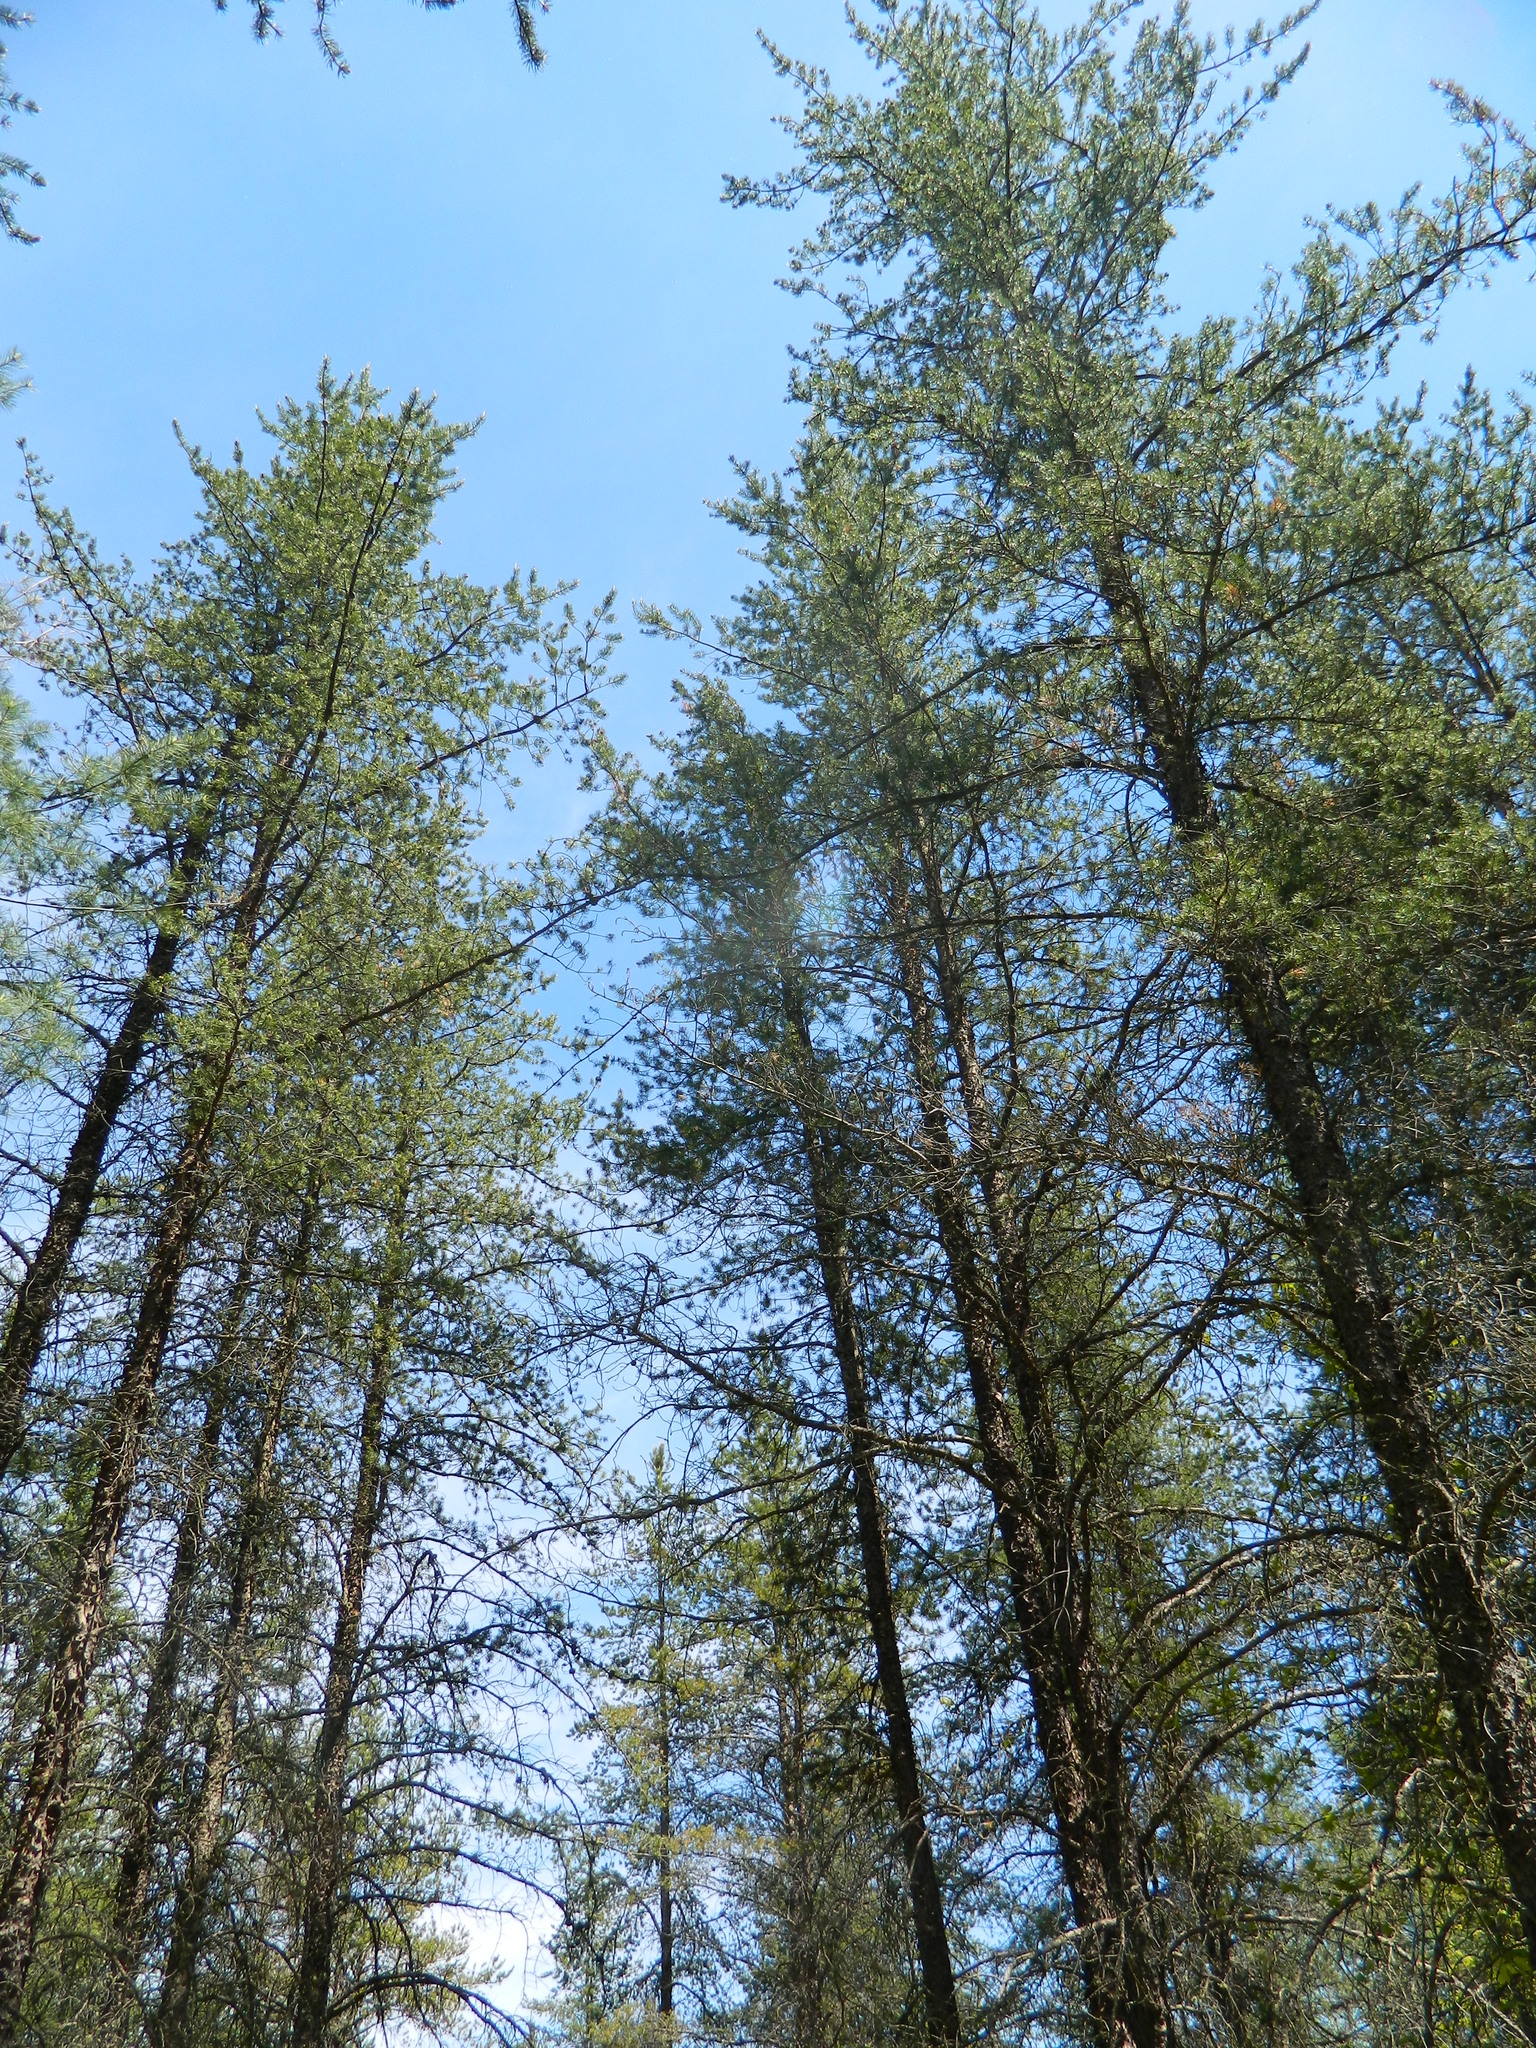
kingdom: Plantae
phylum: Tracheophyta
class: Pinopsida
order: Pinales
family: Pinaceae
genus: Pinus
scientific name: Pinus banksiana
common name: Jack pine
